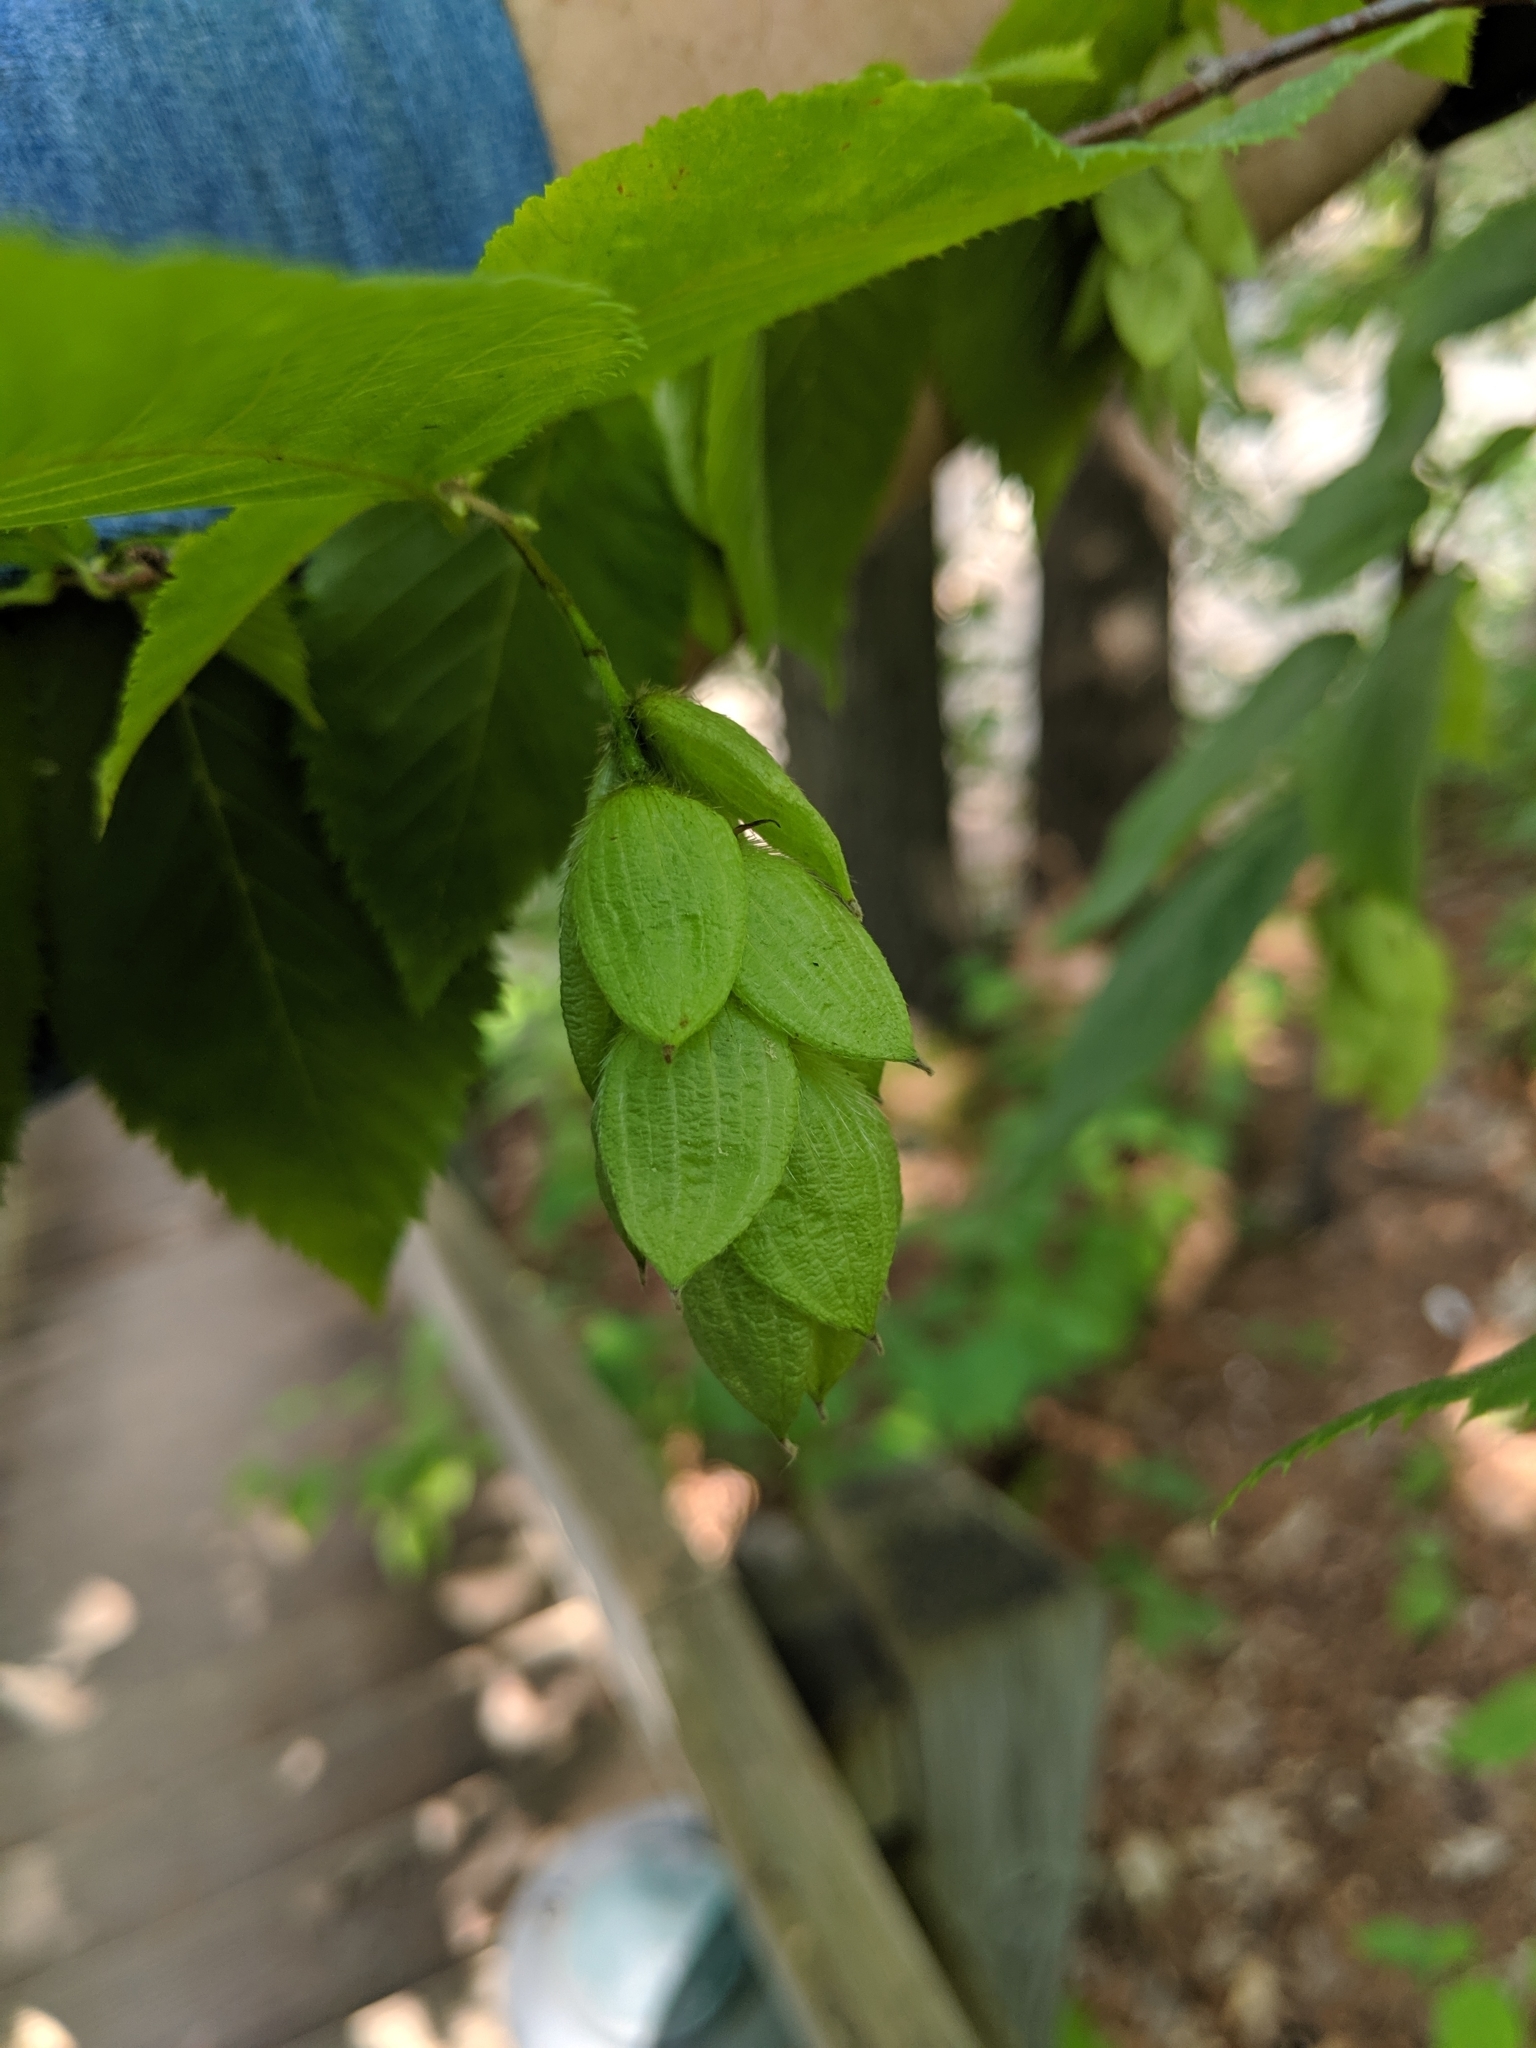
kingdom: Plantae
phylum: Tracheophyta
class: Magnoliopsida
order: Fagales
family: Betulaceae
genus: Ostrya
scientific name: Ostrya virginiana
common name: Ironwood
